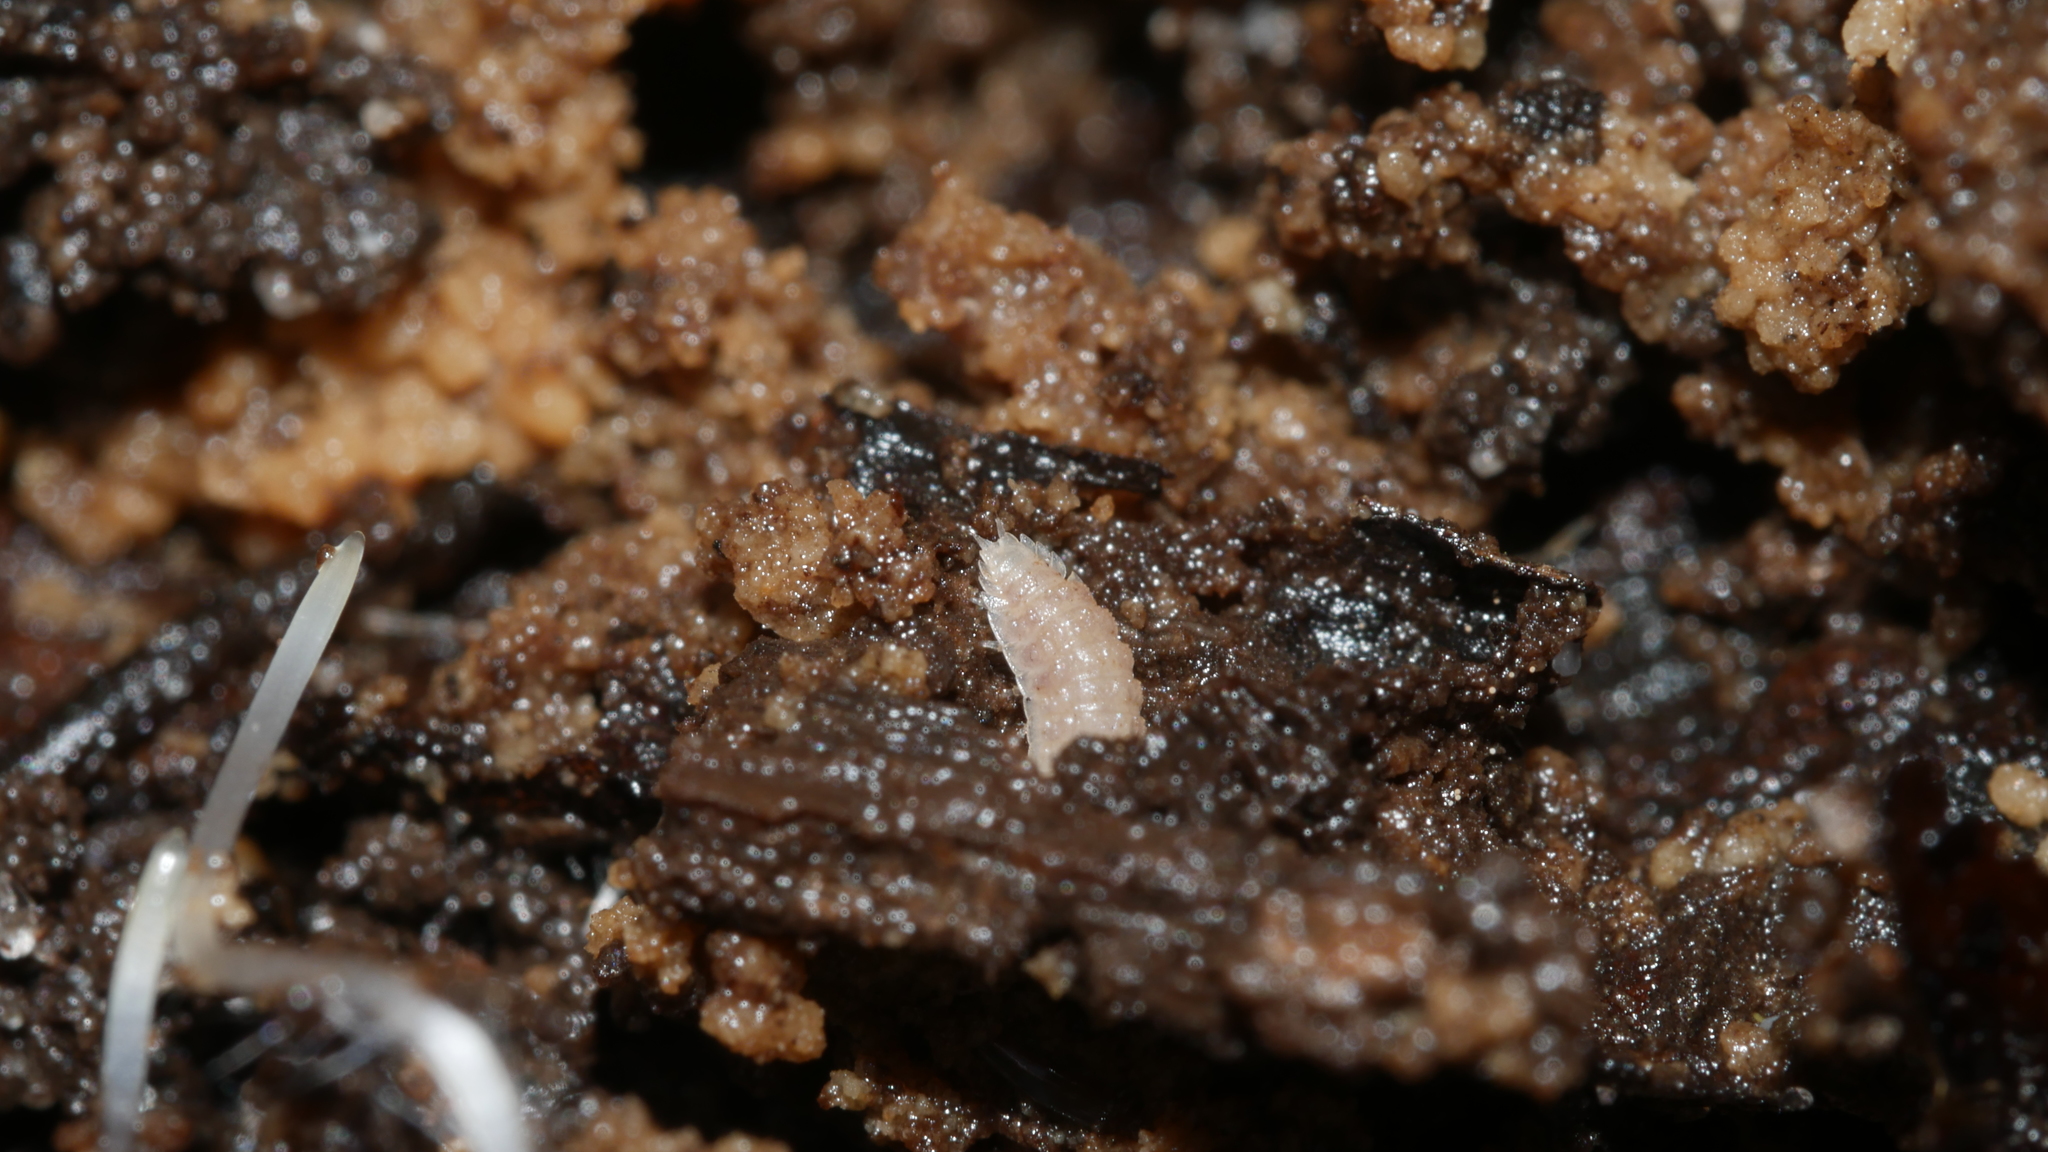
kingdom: Animalia
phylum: Arthropoda
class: Malacostraca
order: Isopoda
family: Trichoniscidae
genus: Haplophthalmus
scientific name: Haplophthalmus danicus
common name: Pillbug
